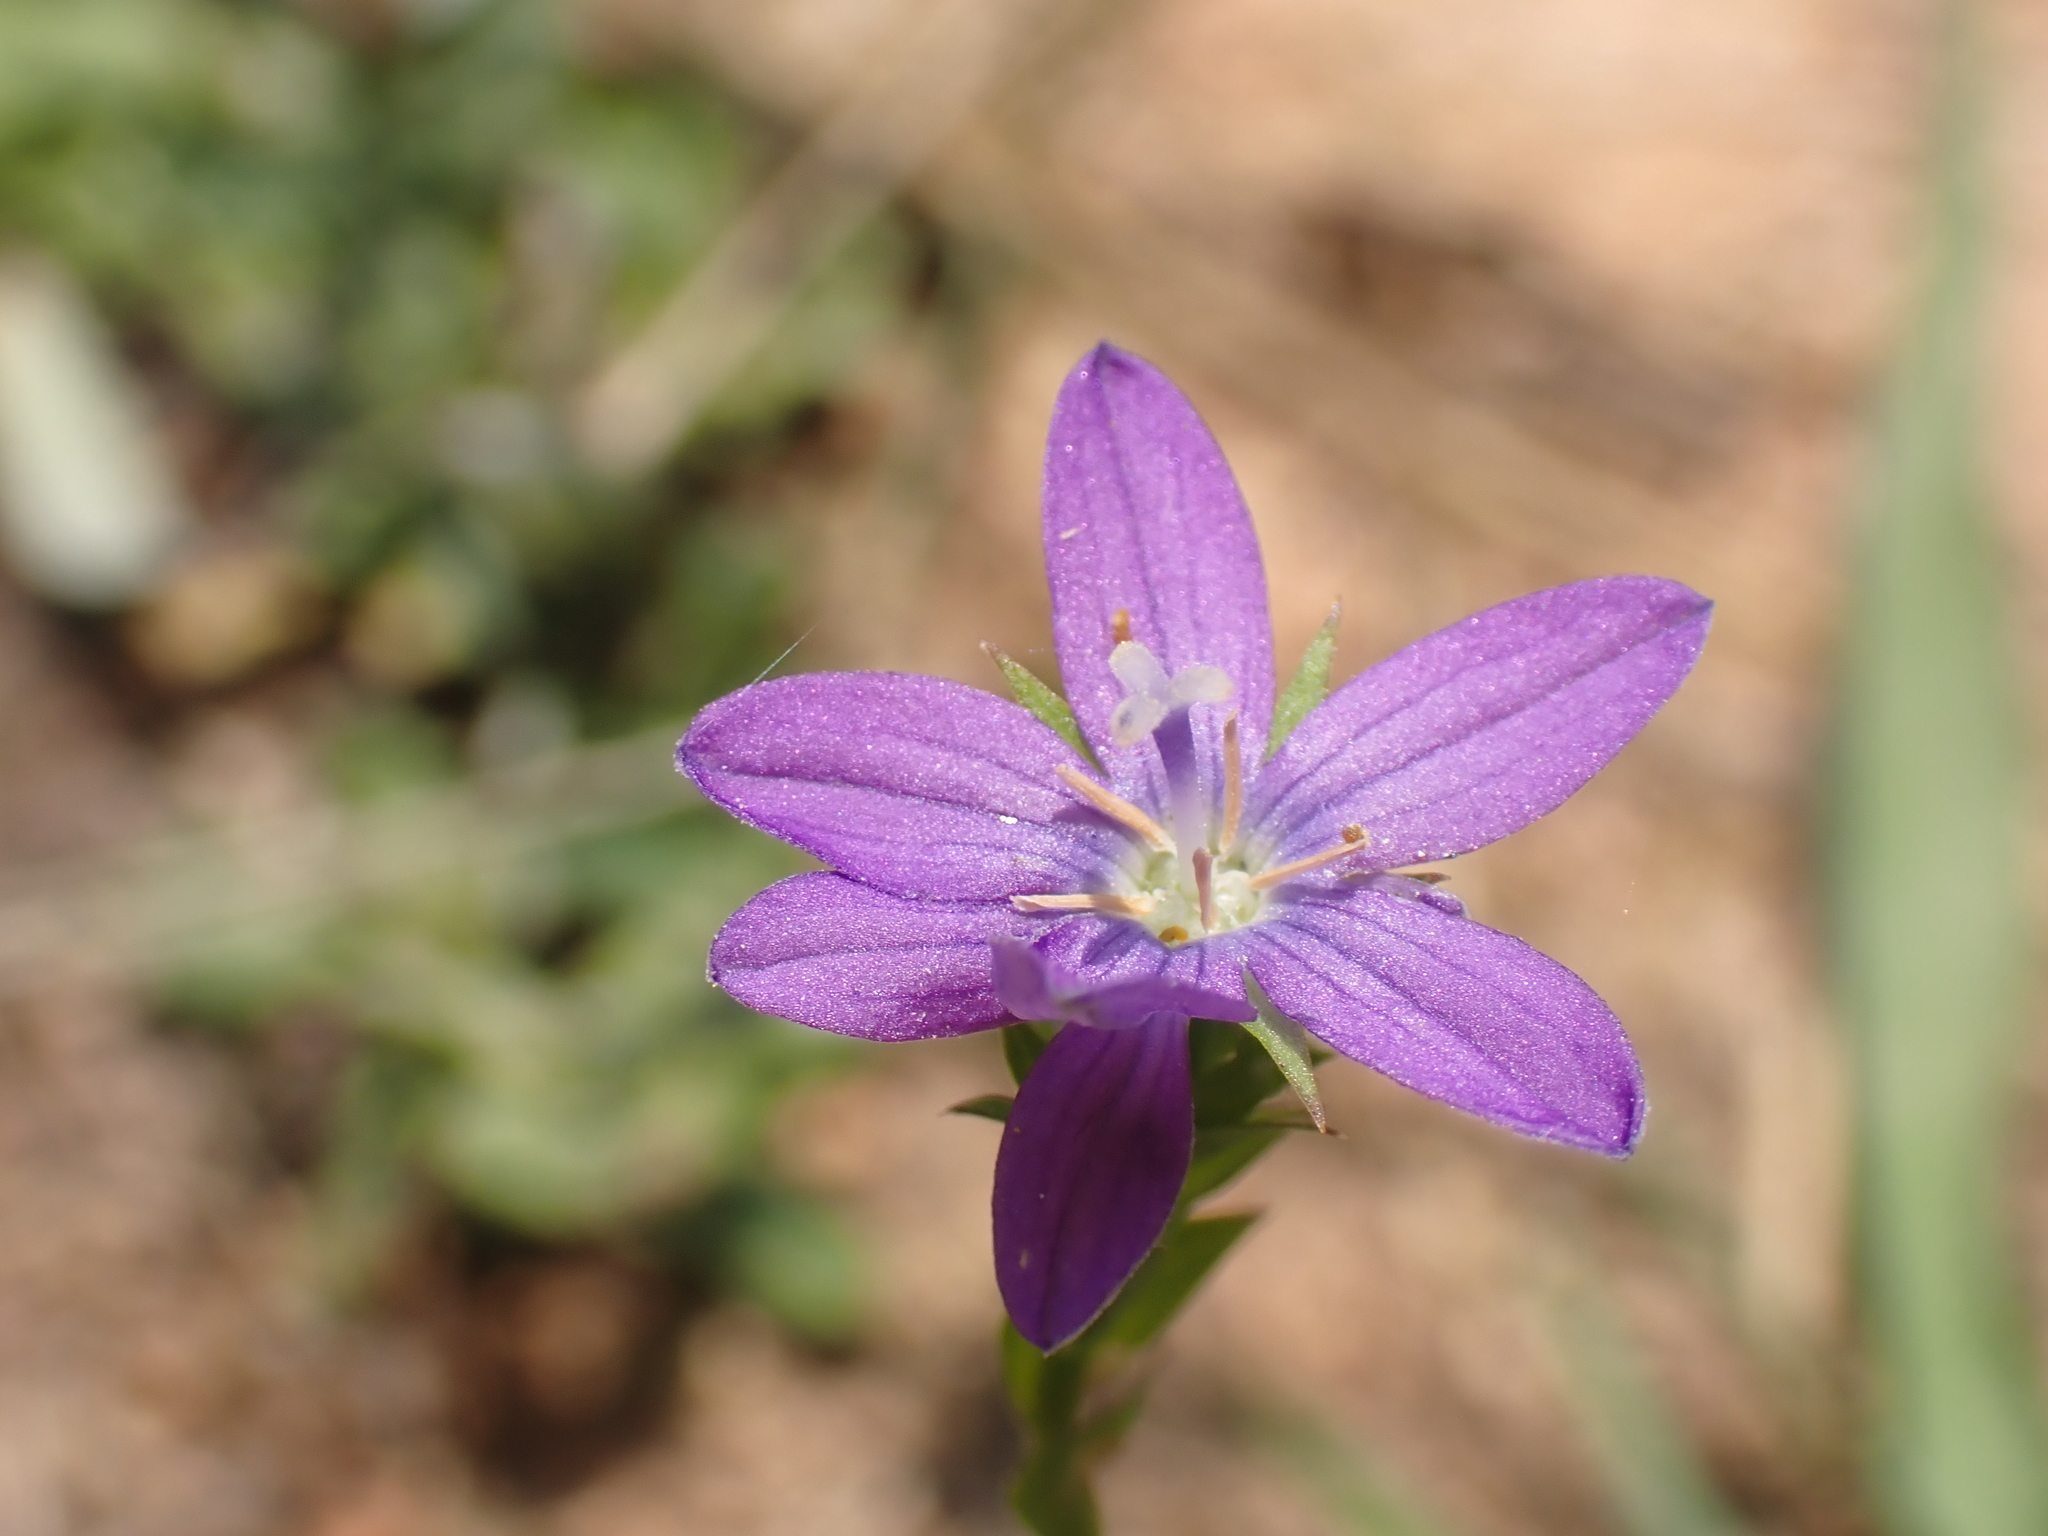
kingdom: Plantae
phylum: Tracheophyta
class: Magnoliopsida
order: Asterales
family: Campanulaceae
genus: Triodanis
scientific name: Triodanis biflora
